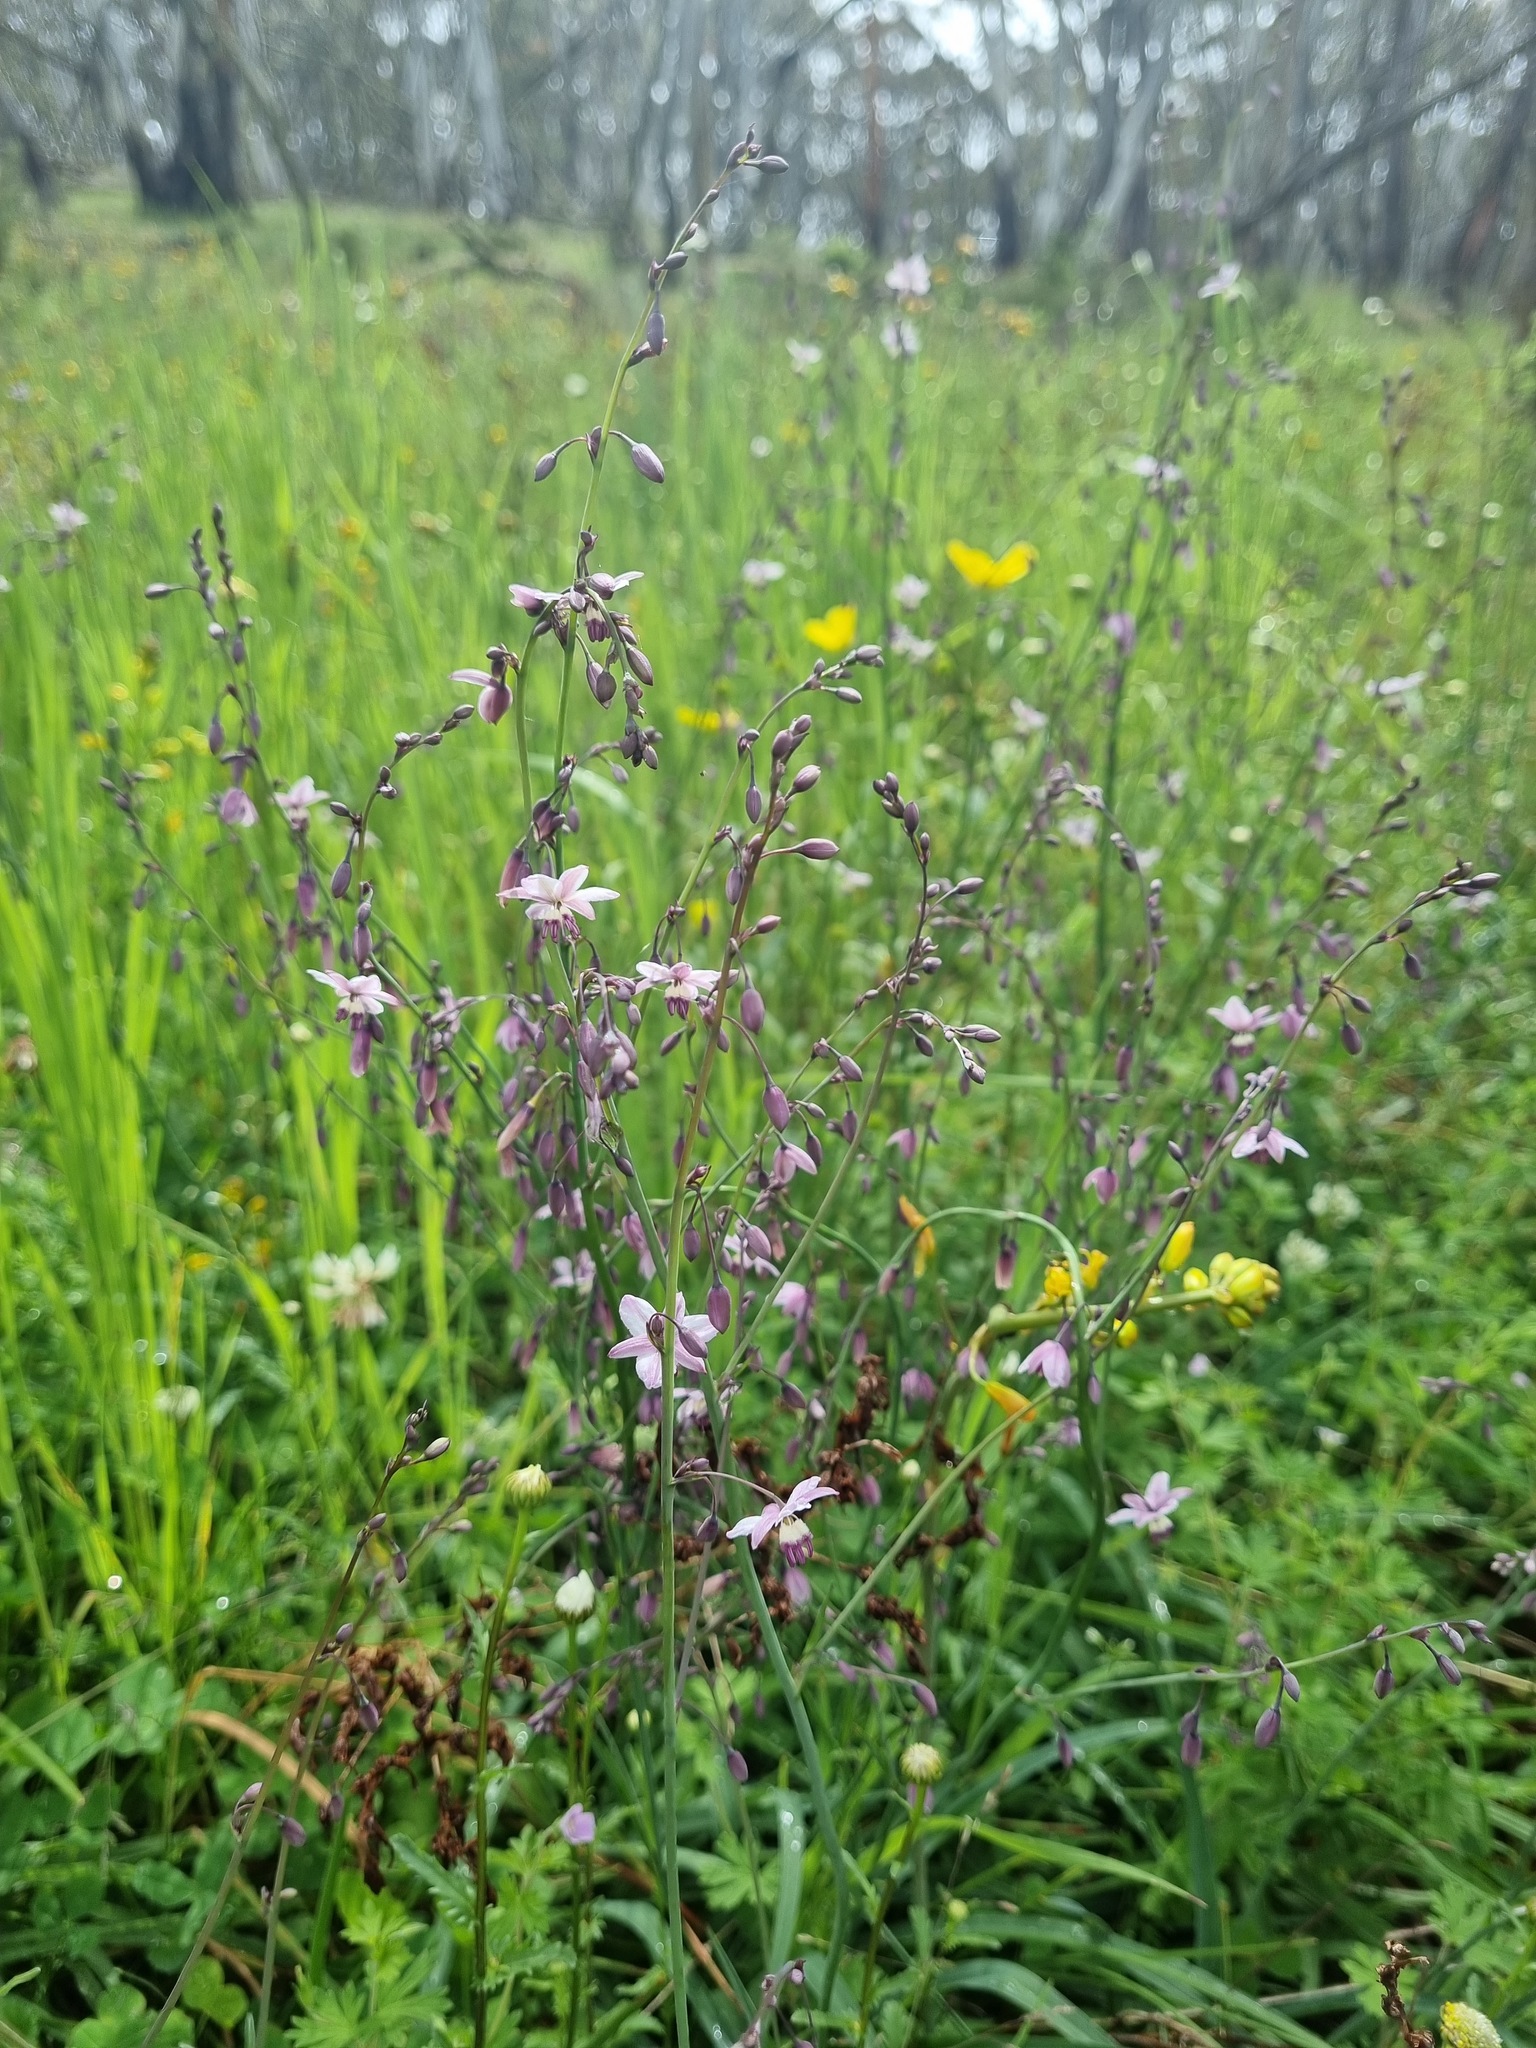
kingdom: Plantae
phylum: Tracheophyta
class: Liliopsida
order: Asparagales
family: Asparagaceae
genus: Arthropodium
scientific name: Arthropodium milleflorum
